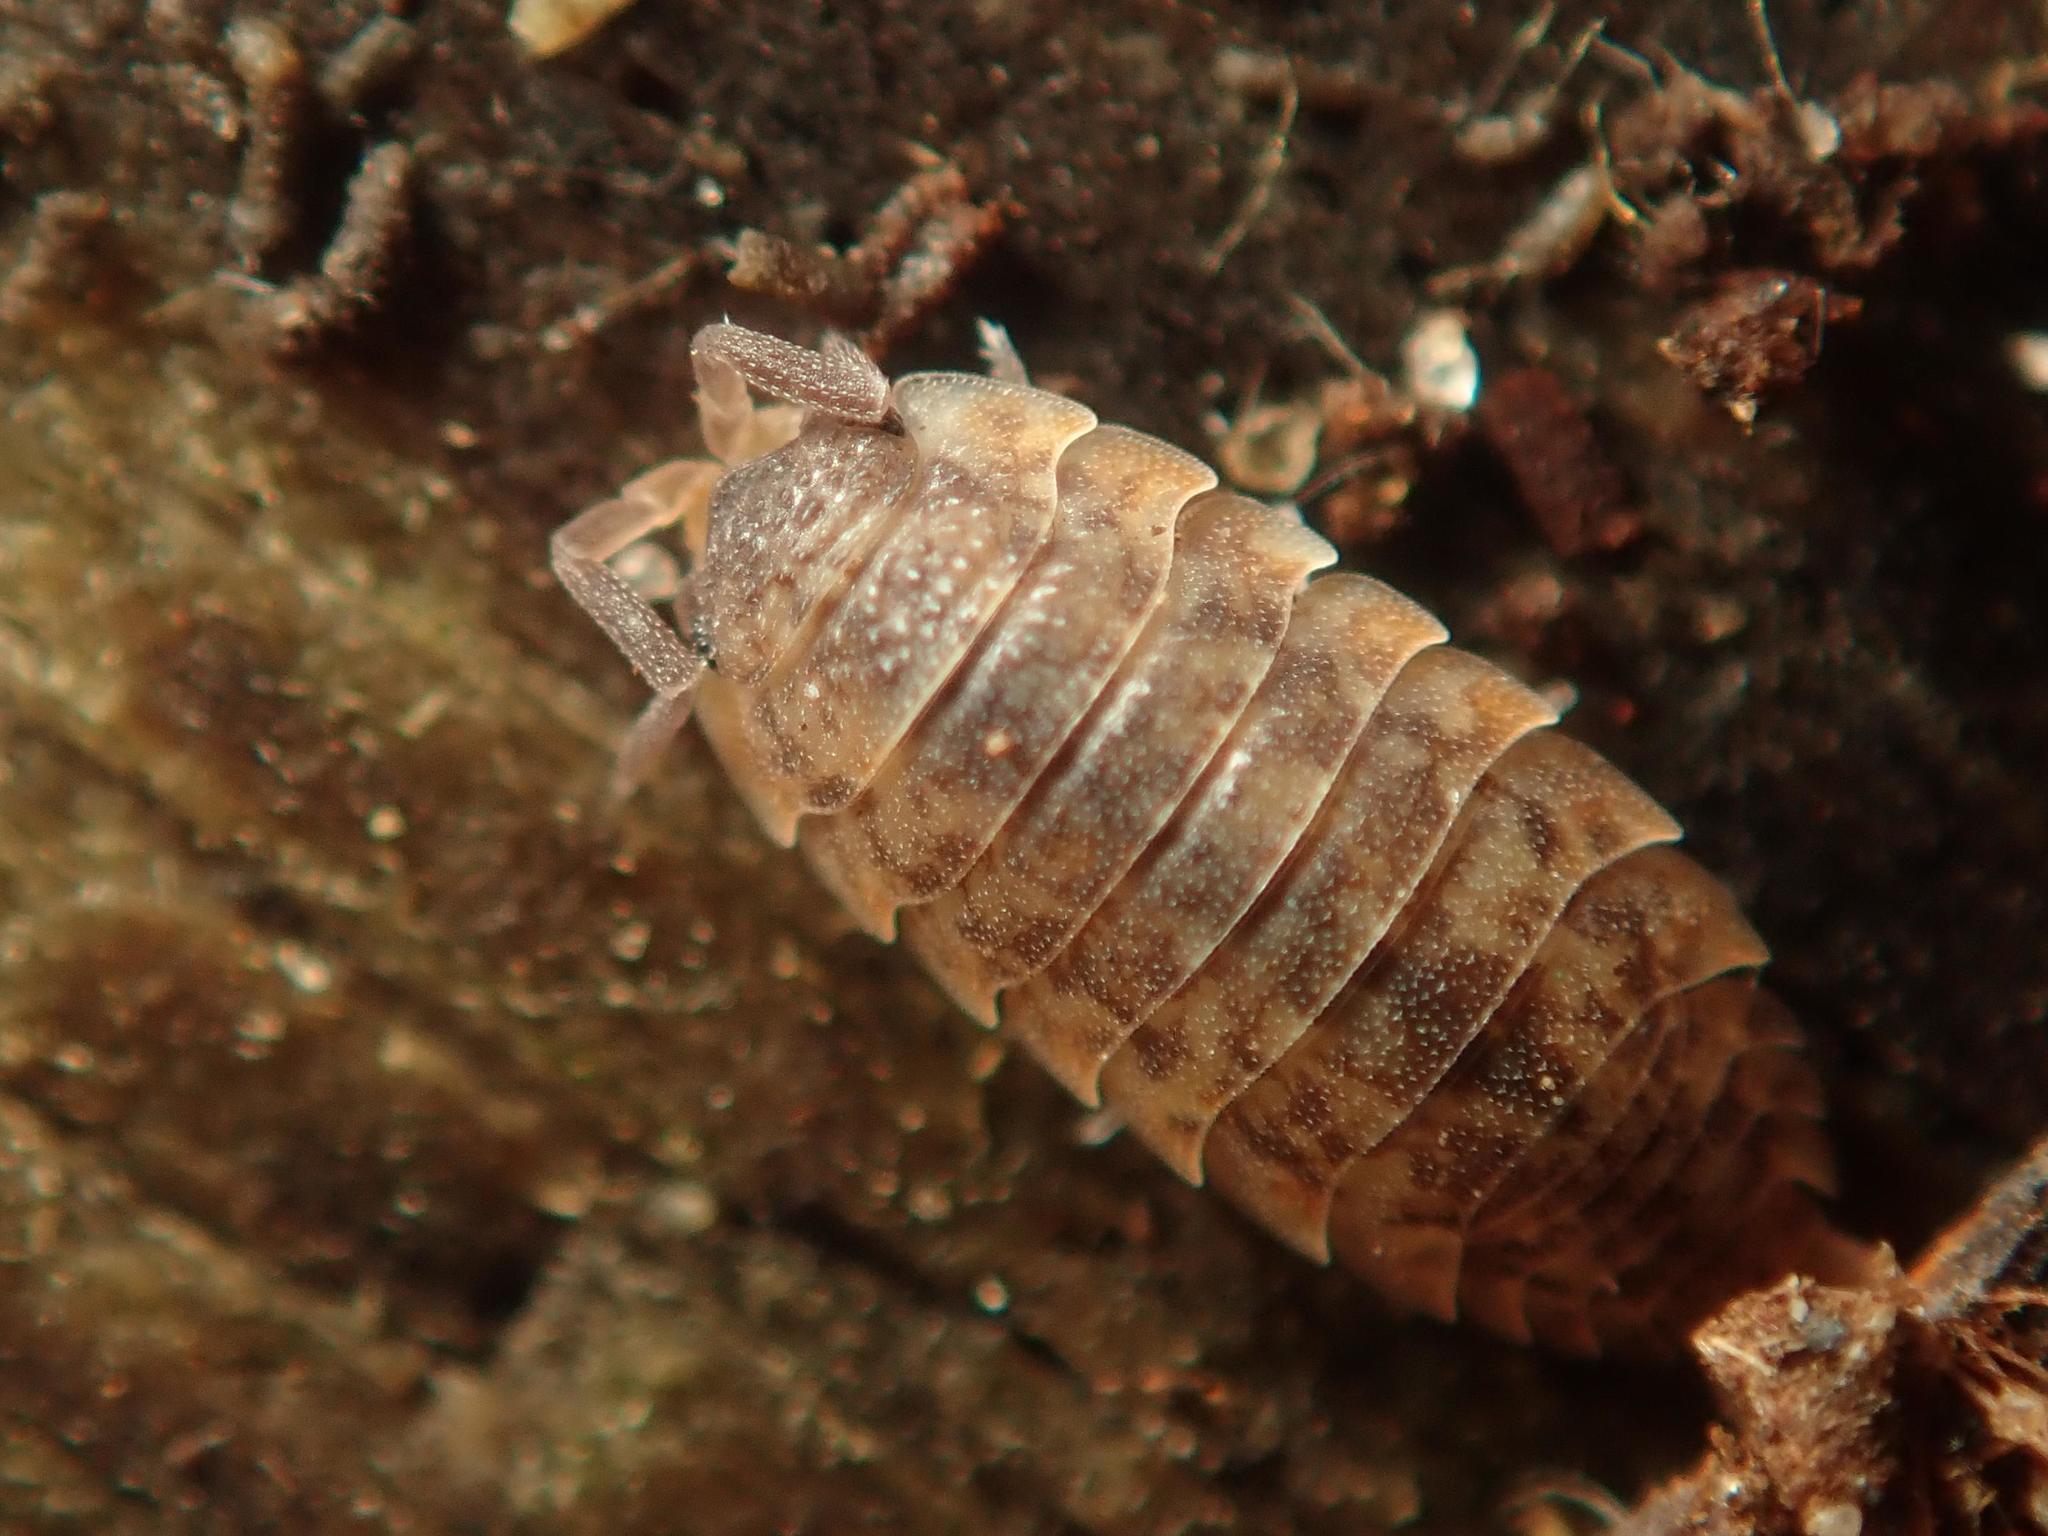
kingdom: Animalia
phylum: Arthropoda
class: Malacostraca
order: Isopoda
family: Porcellionidae
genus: Porcellio
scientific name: Porcellio scaber
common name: Common rough woodlouse
